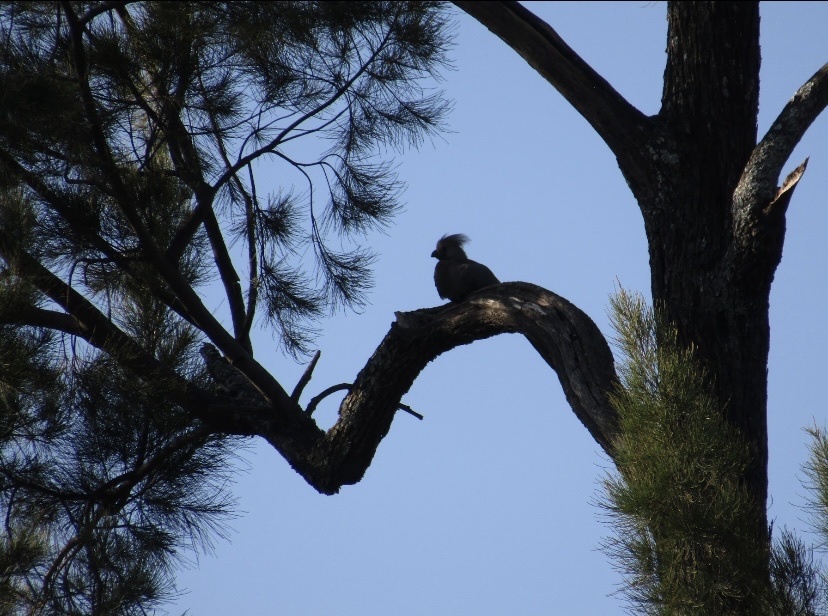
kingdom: Animalia
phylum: Chordata
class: Aves
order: Musophagiformes
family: Musophagidae
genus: Corythaixoides
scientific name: Corythaixoides concolor
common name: Grey go-away-bird
